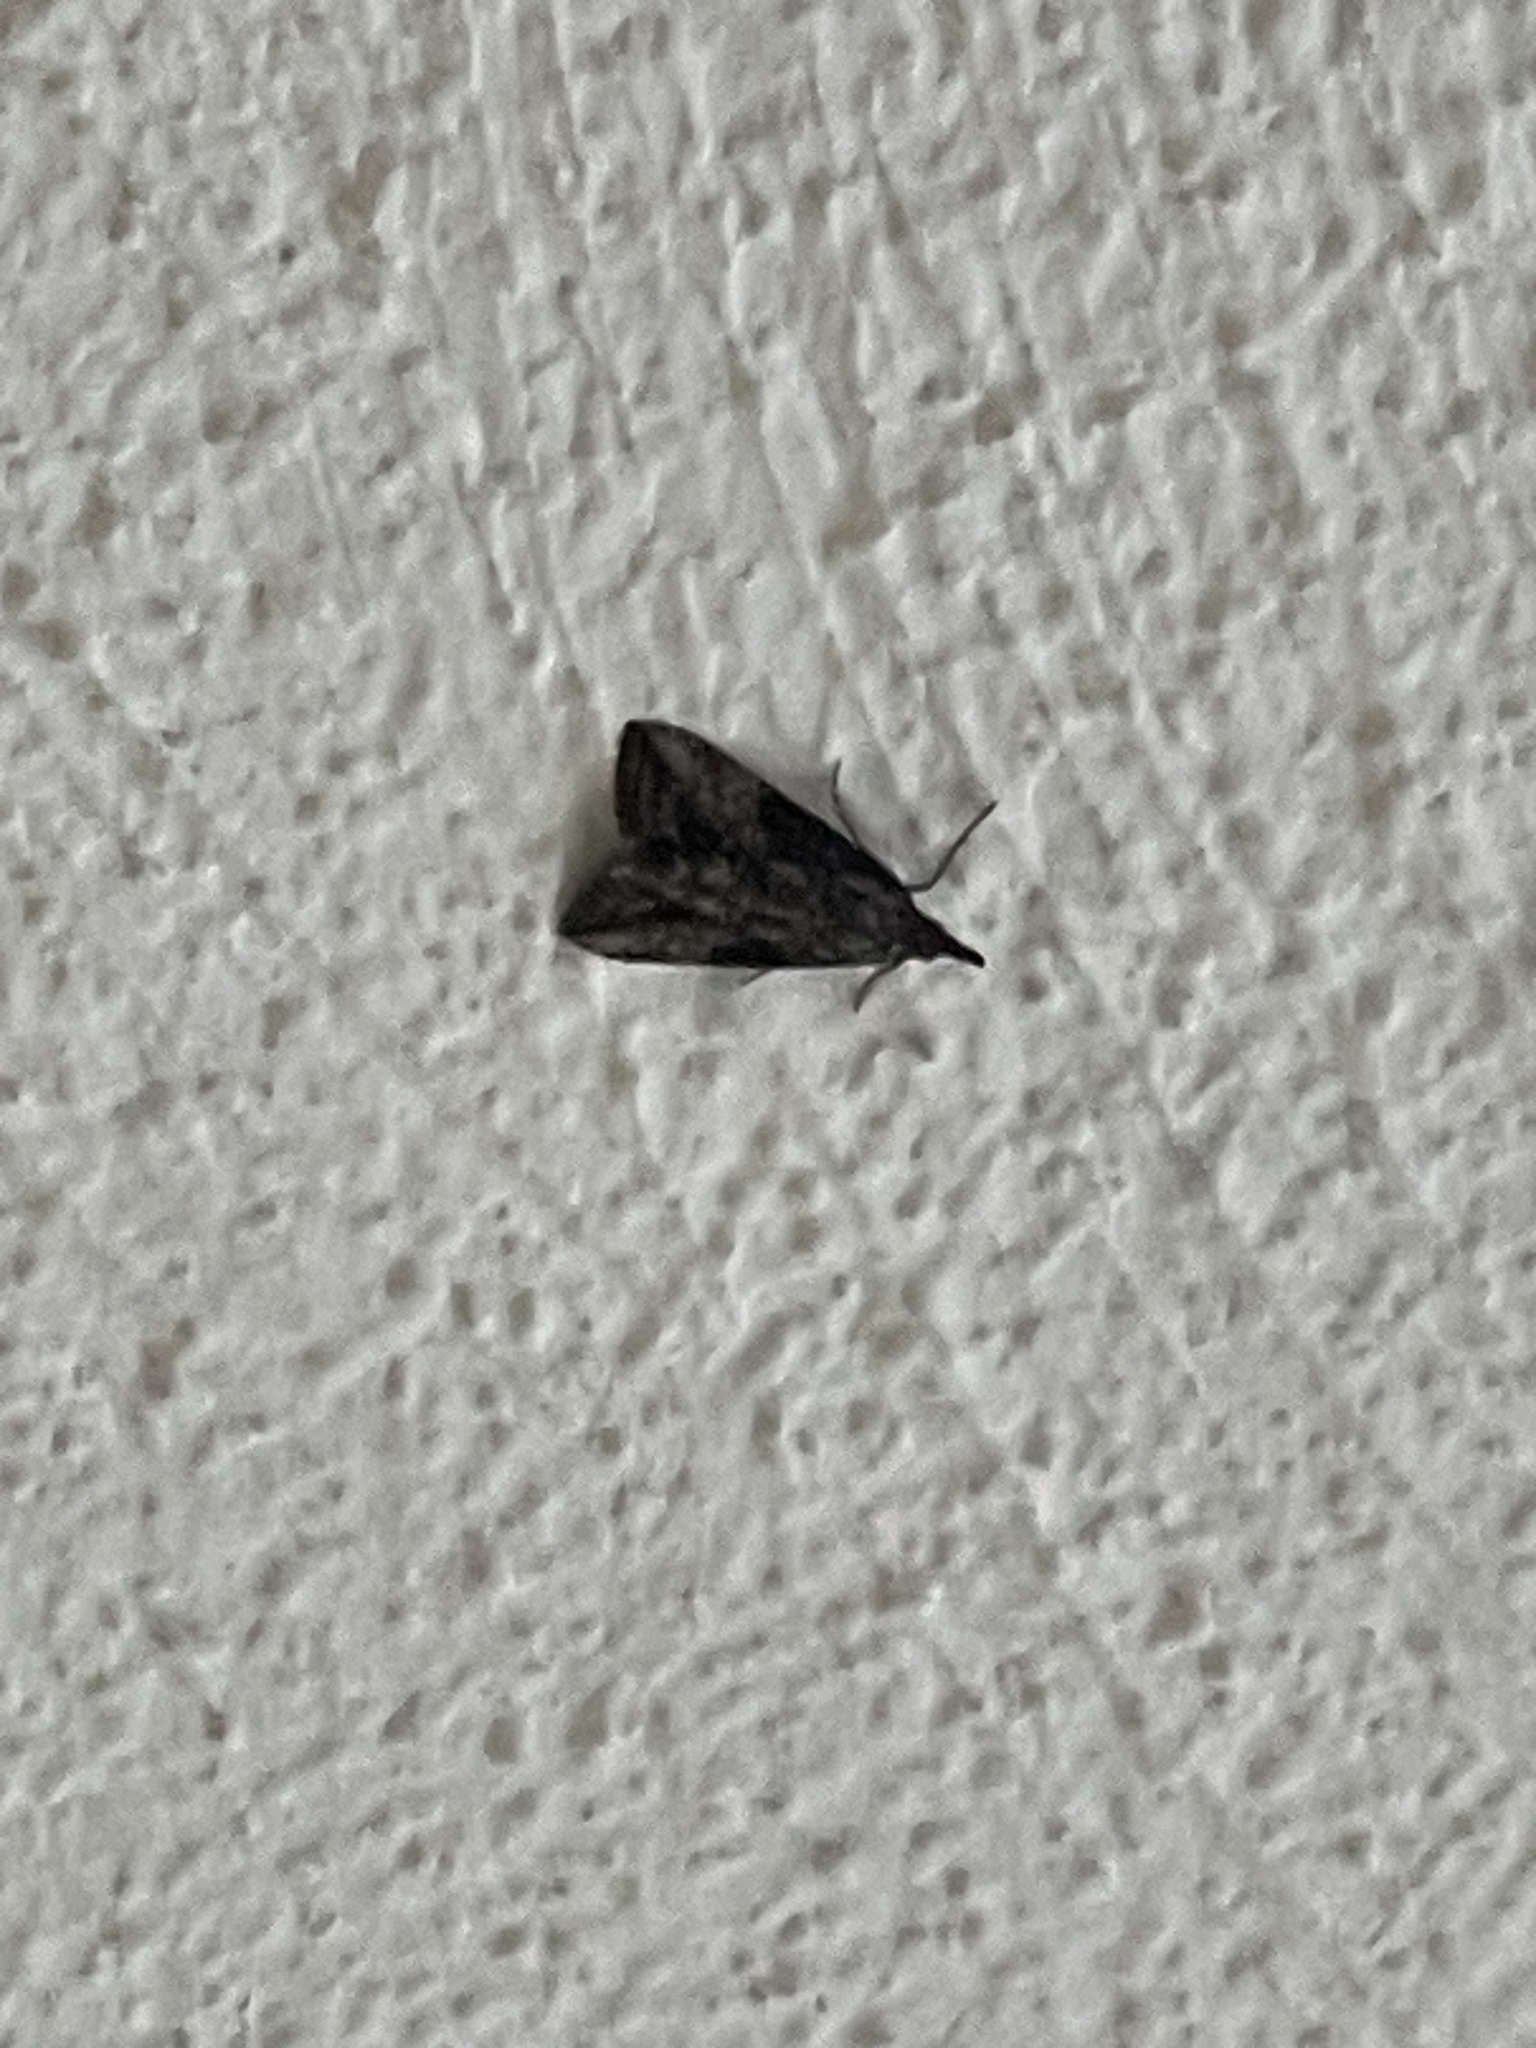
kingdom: Animalia
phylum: Arthropoda
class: Insecta
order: Lepidoptera
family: Erebidae
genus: Hypena
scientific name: Hypena scabra
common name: Green cloverworm
